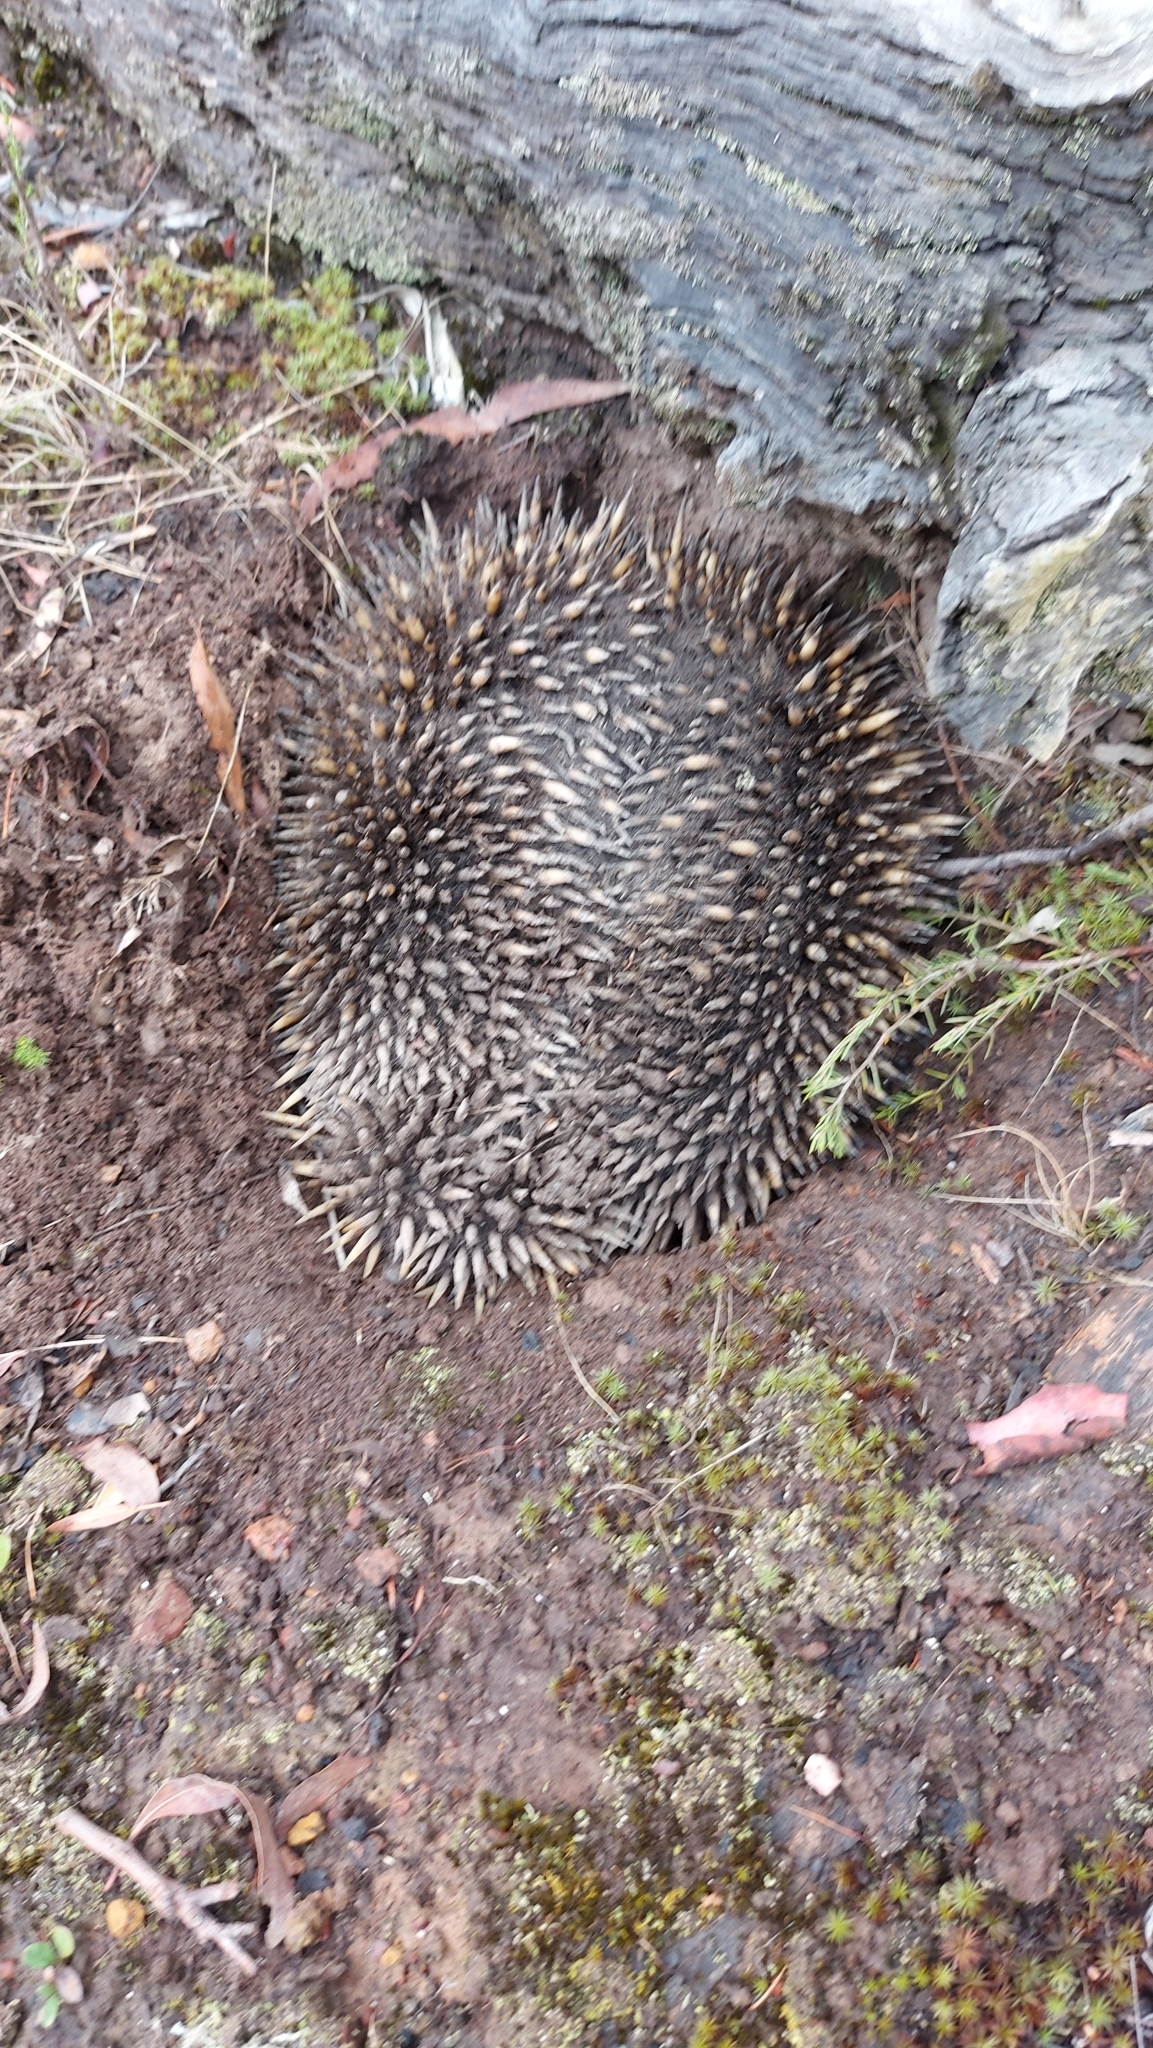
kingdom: Animalia
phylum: Chordata
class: Mammalia
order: Monotremata
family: Tachyglossidae
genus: Tachyglossus
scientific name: Tachyglossus aculeatus
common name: Short-beaked echidna
